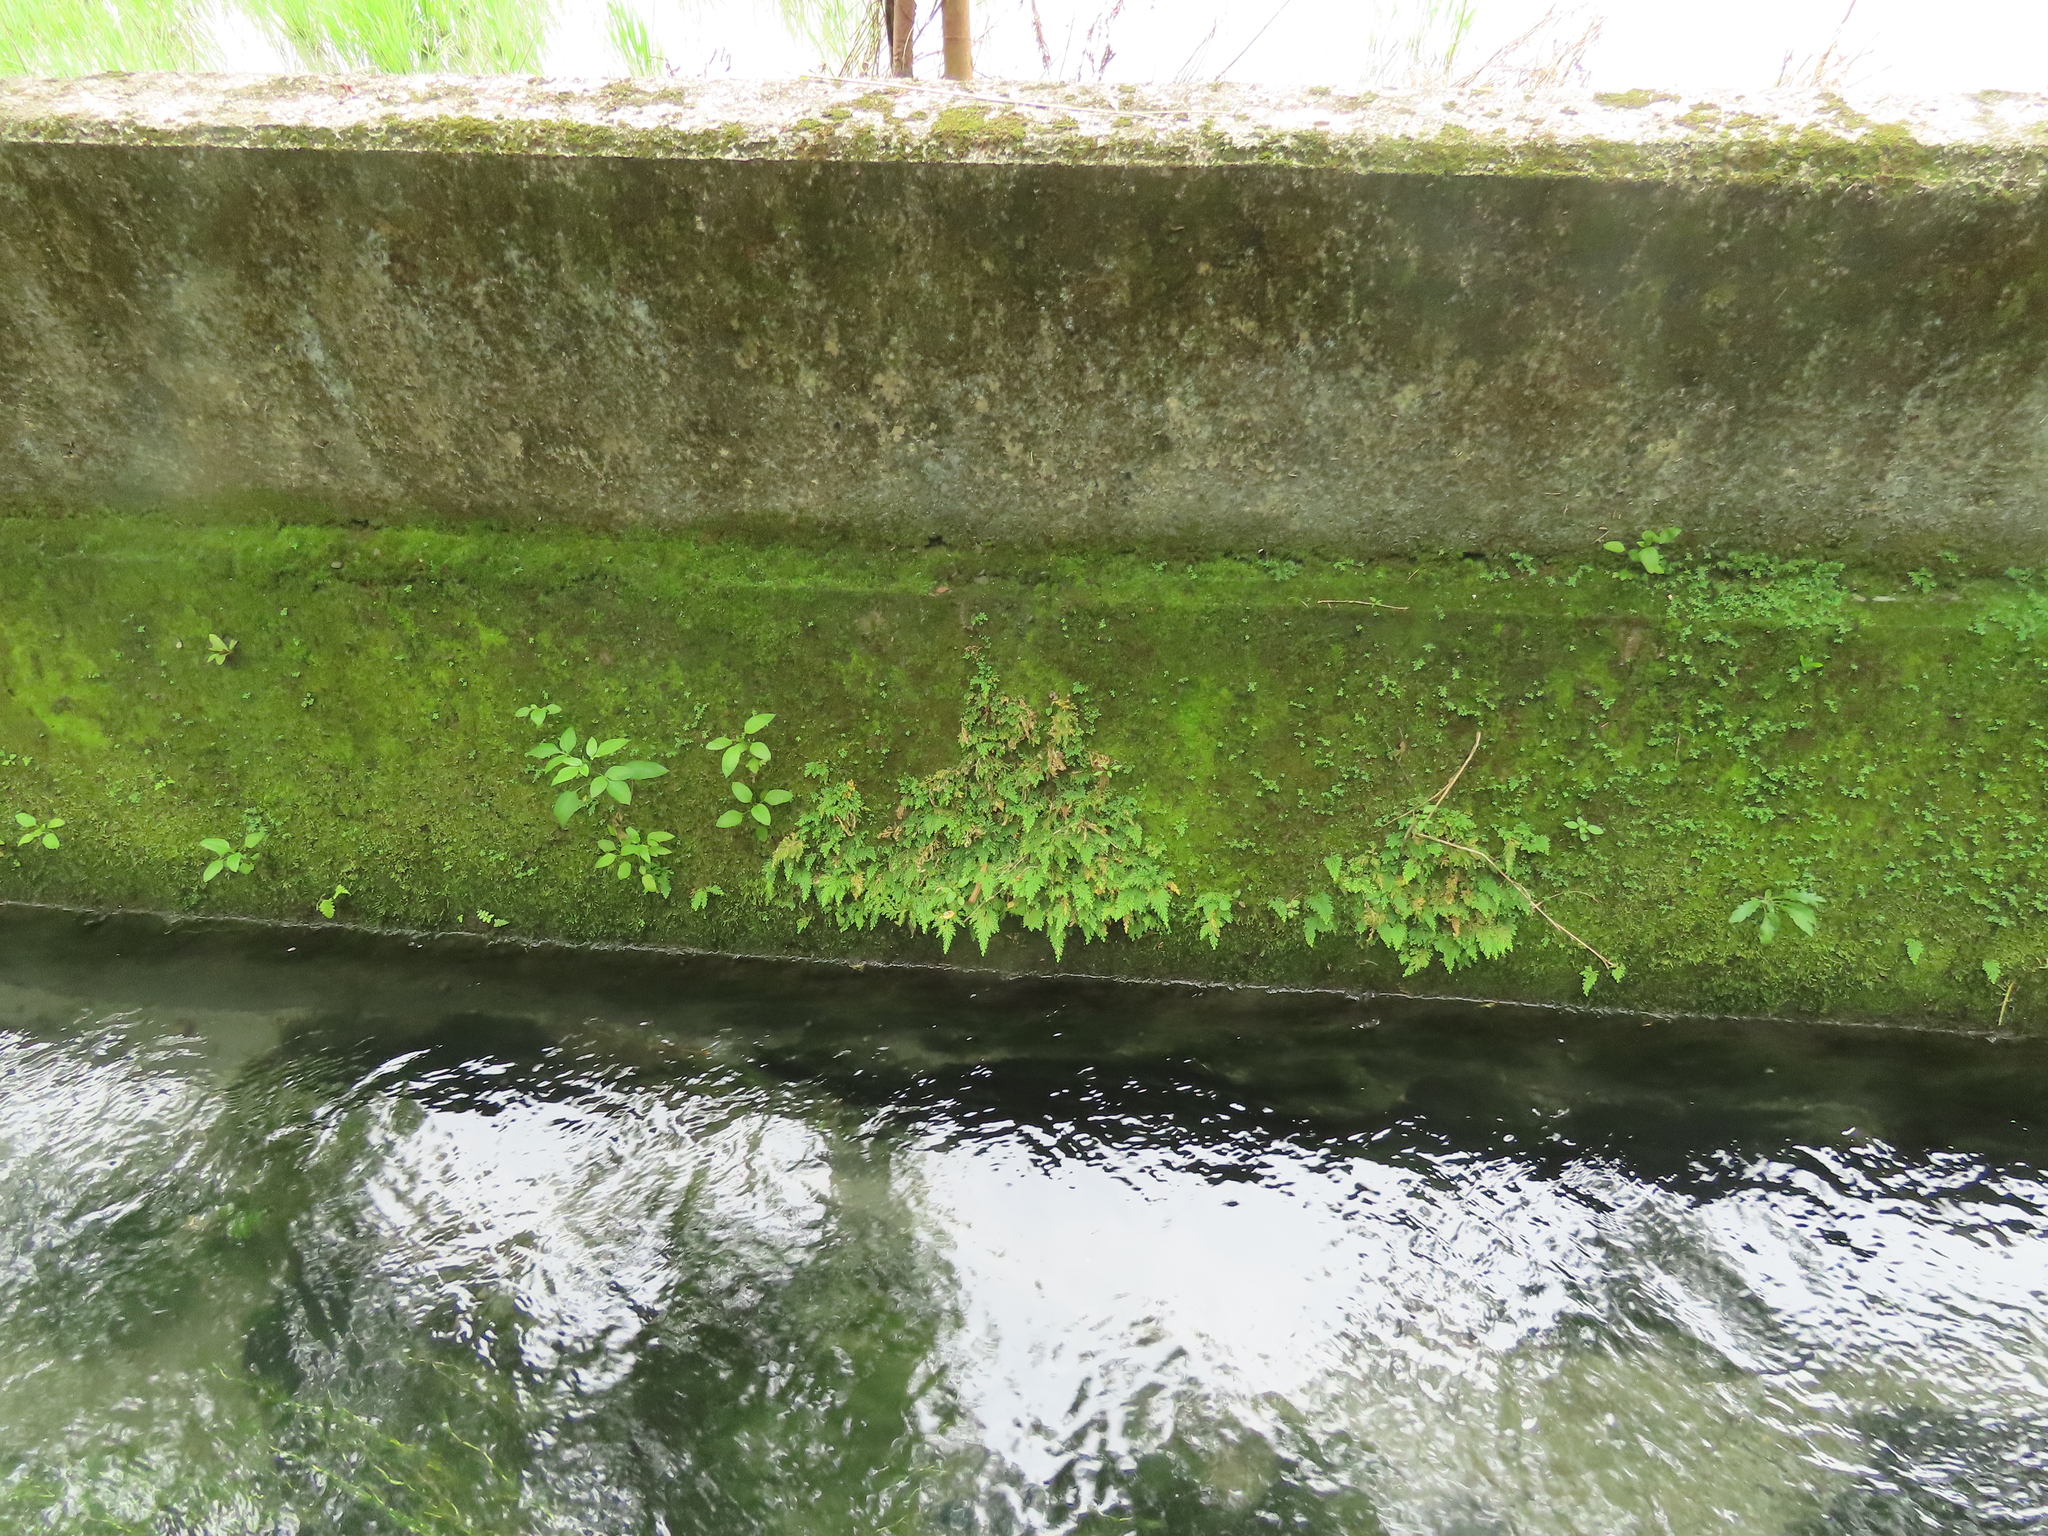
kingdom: Plantae
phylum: Tracheophyta
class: Lycopodiopsida
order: Selaginellales
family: Selaginellaceae
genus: Selaginella
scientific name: Selaginella moellendorffii
